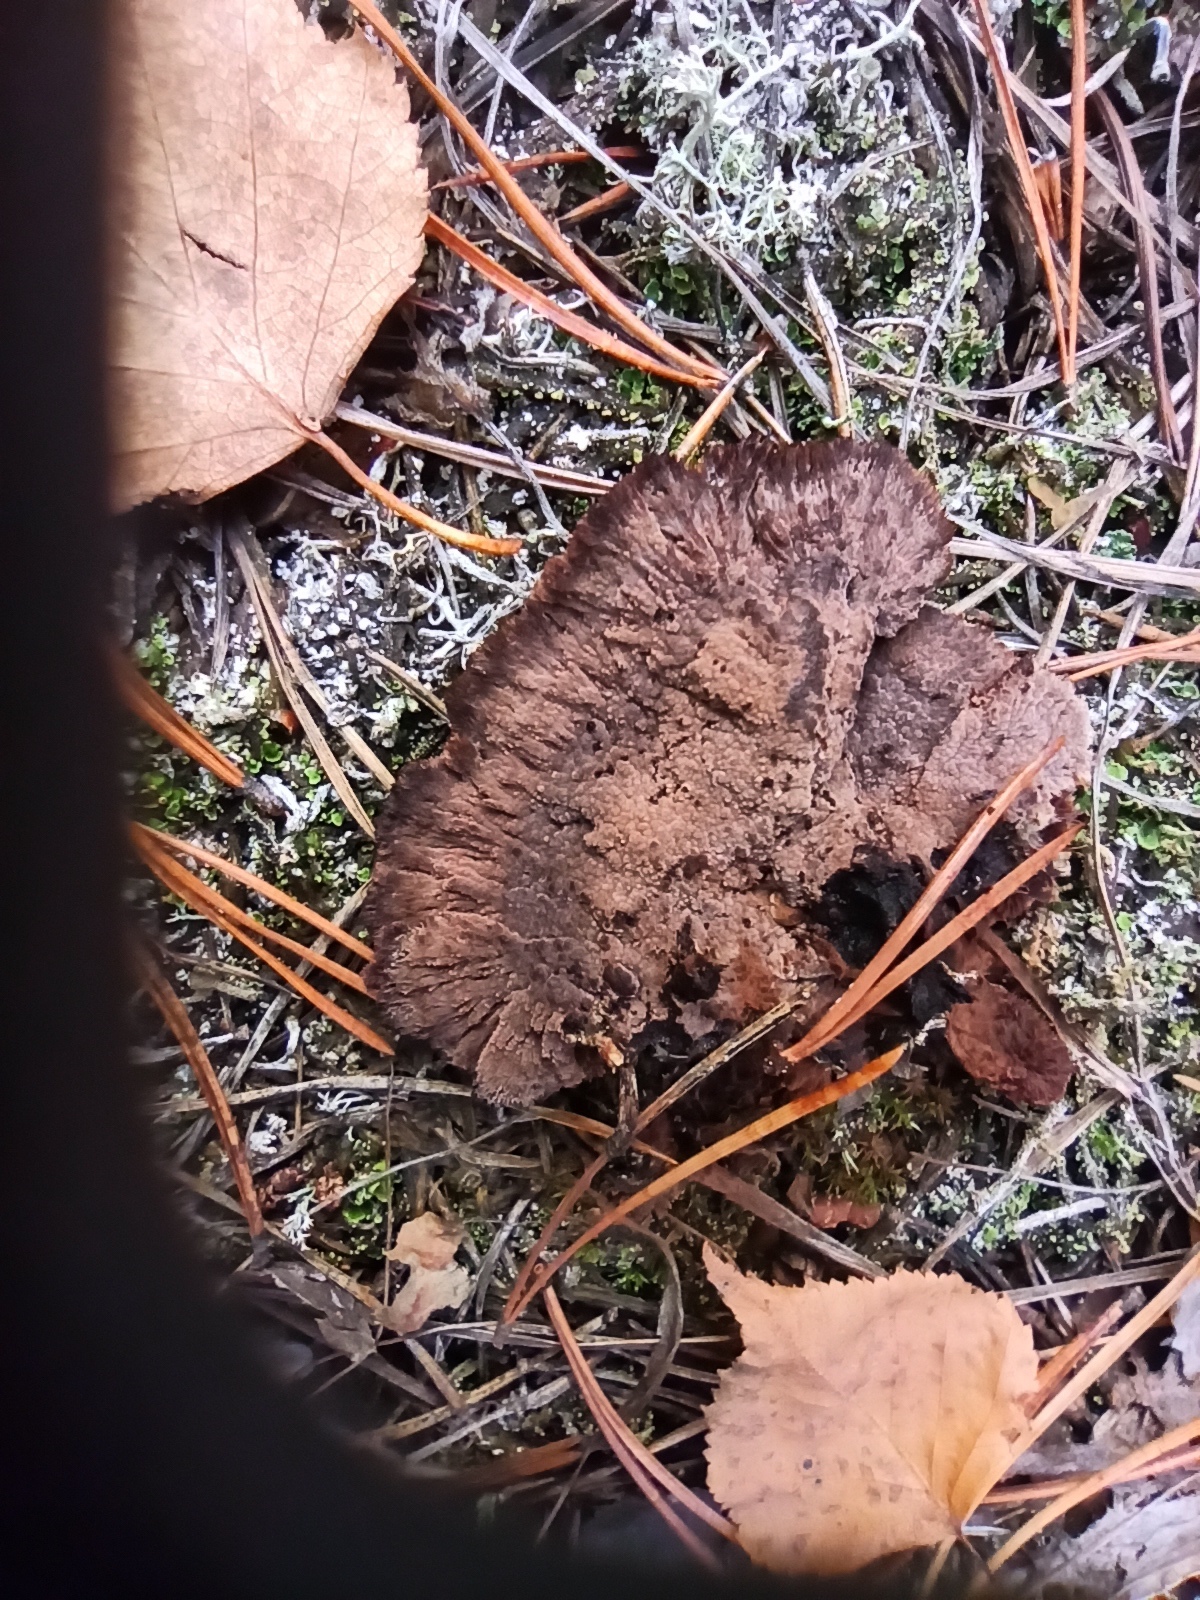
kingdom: Fungi
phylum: Basidiomycota
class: Agaricomycetes
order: Thelephorales
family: Thelephoraceae
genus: Thelephora
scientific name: Thelephora terrestris
